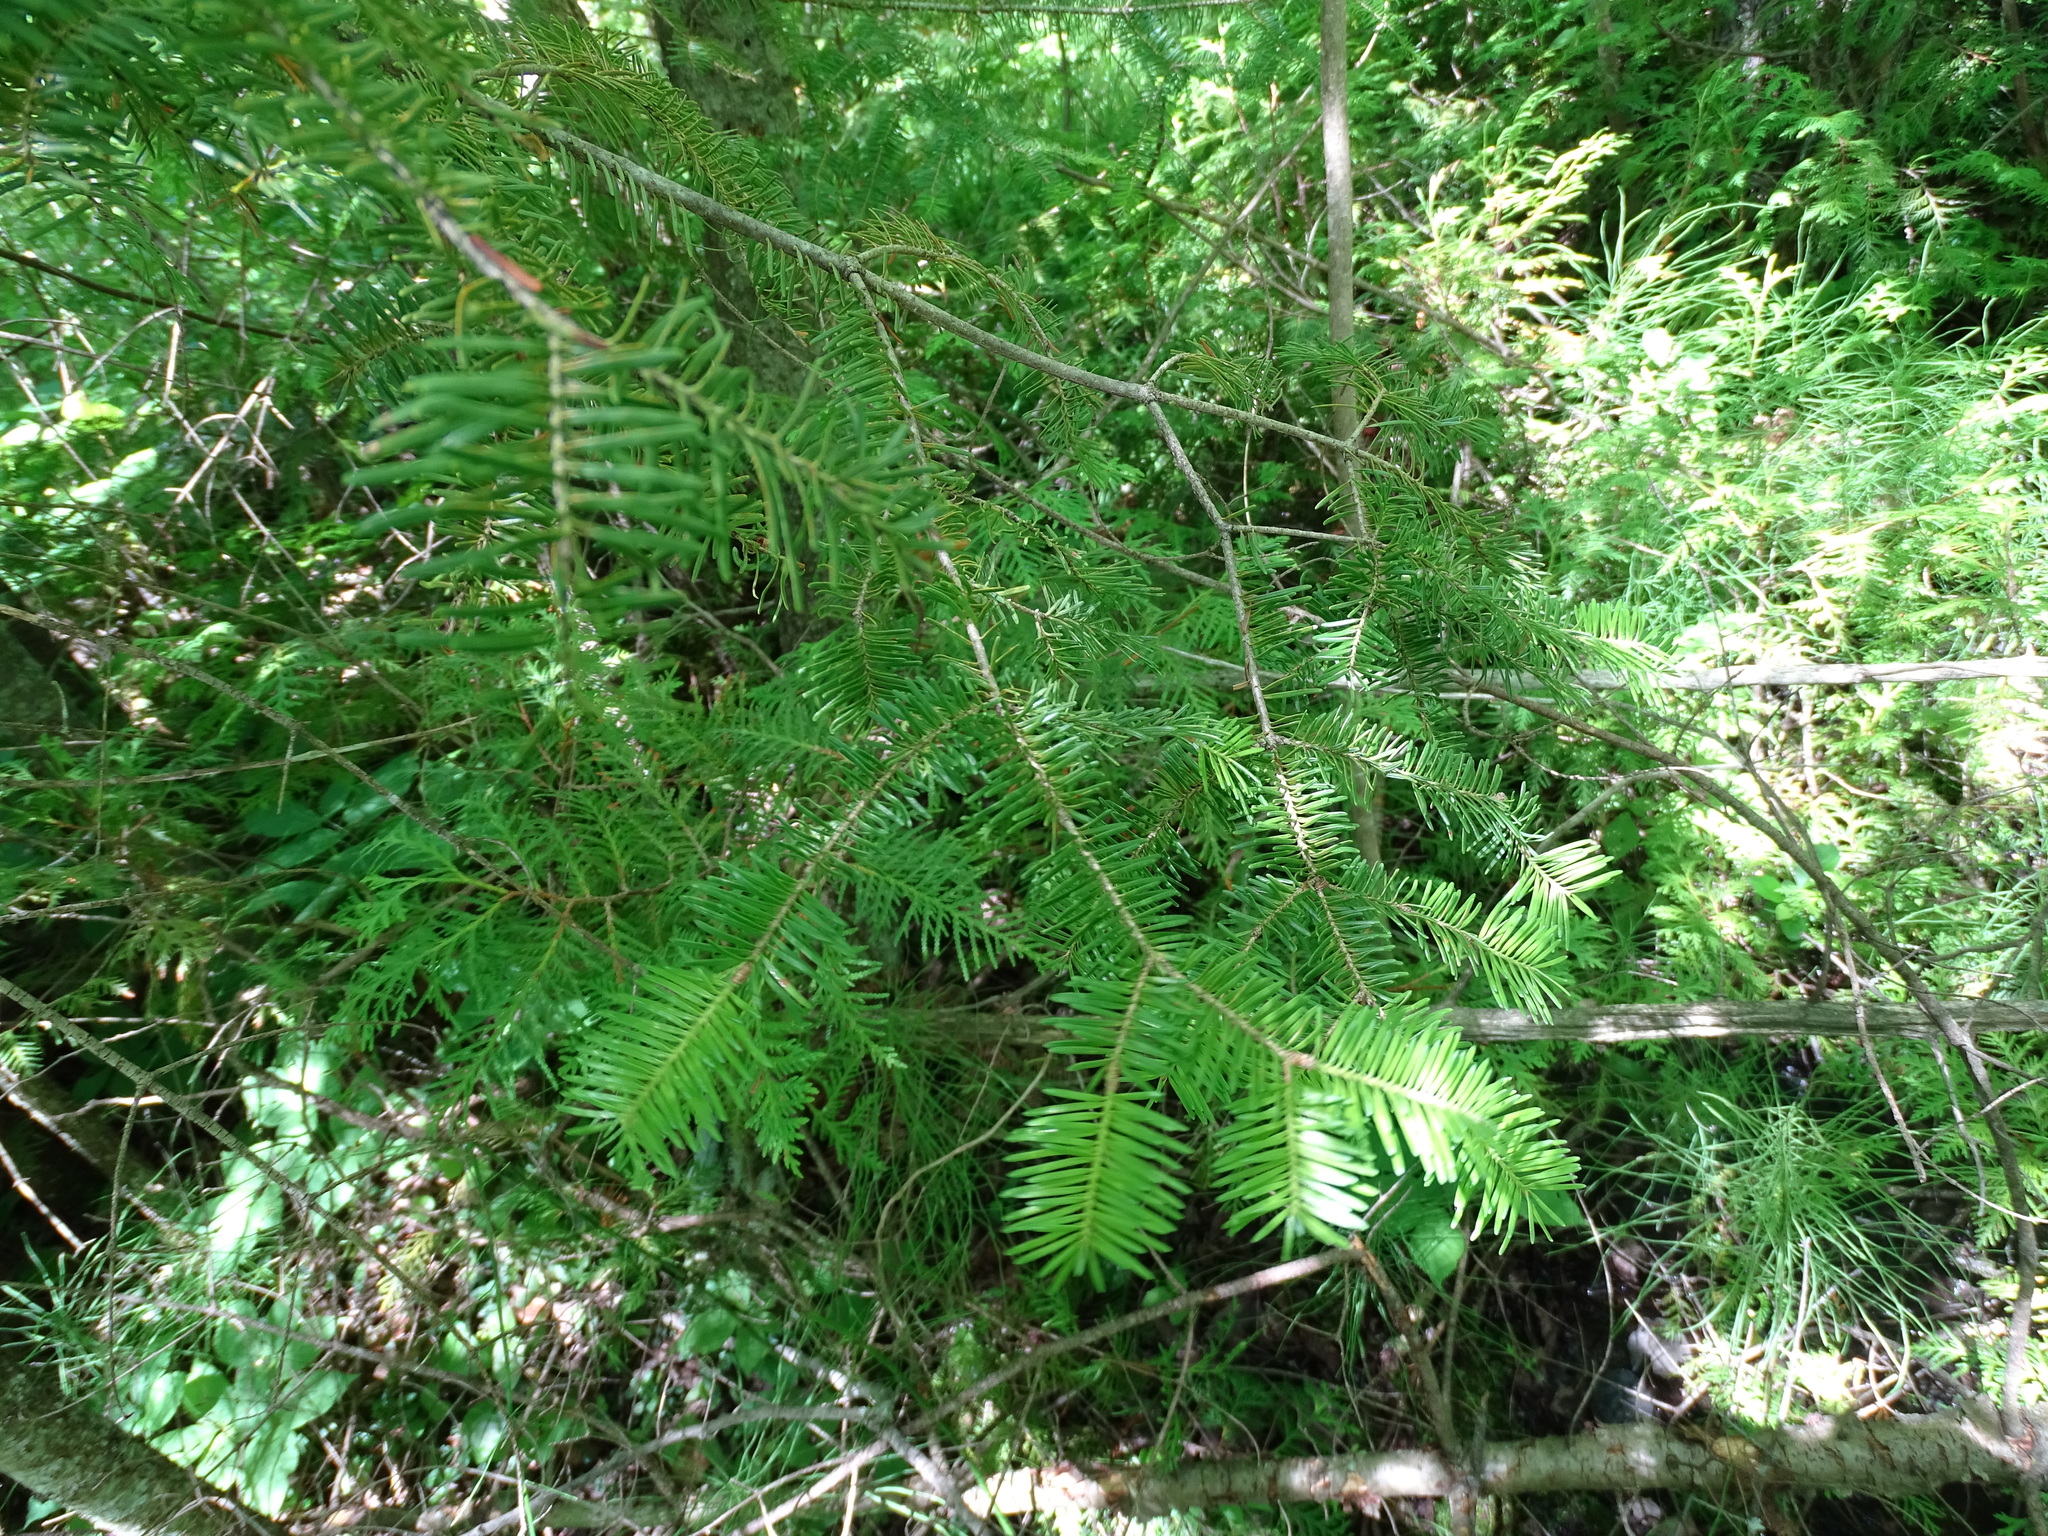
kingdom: Plantae
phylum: Tracheophyta
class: Pinopsida
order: Pinales
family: Pinaceae
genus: Abies
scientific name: Abies balsamea
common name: Balsam fir
